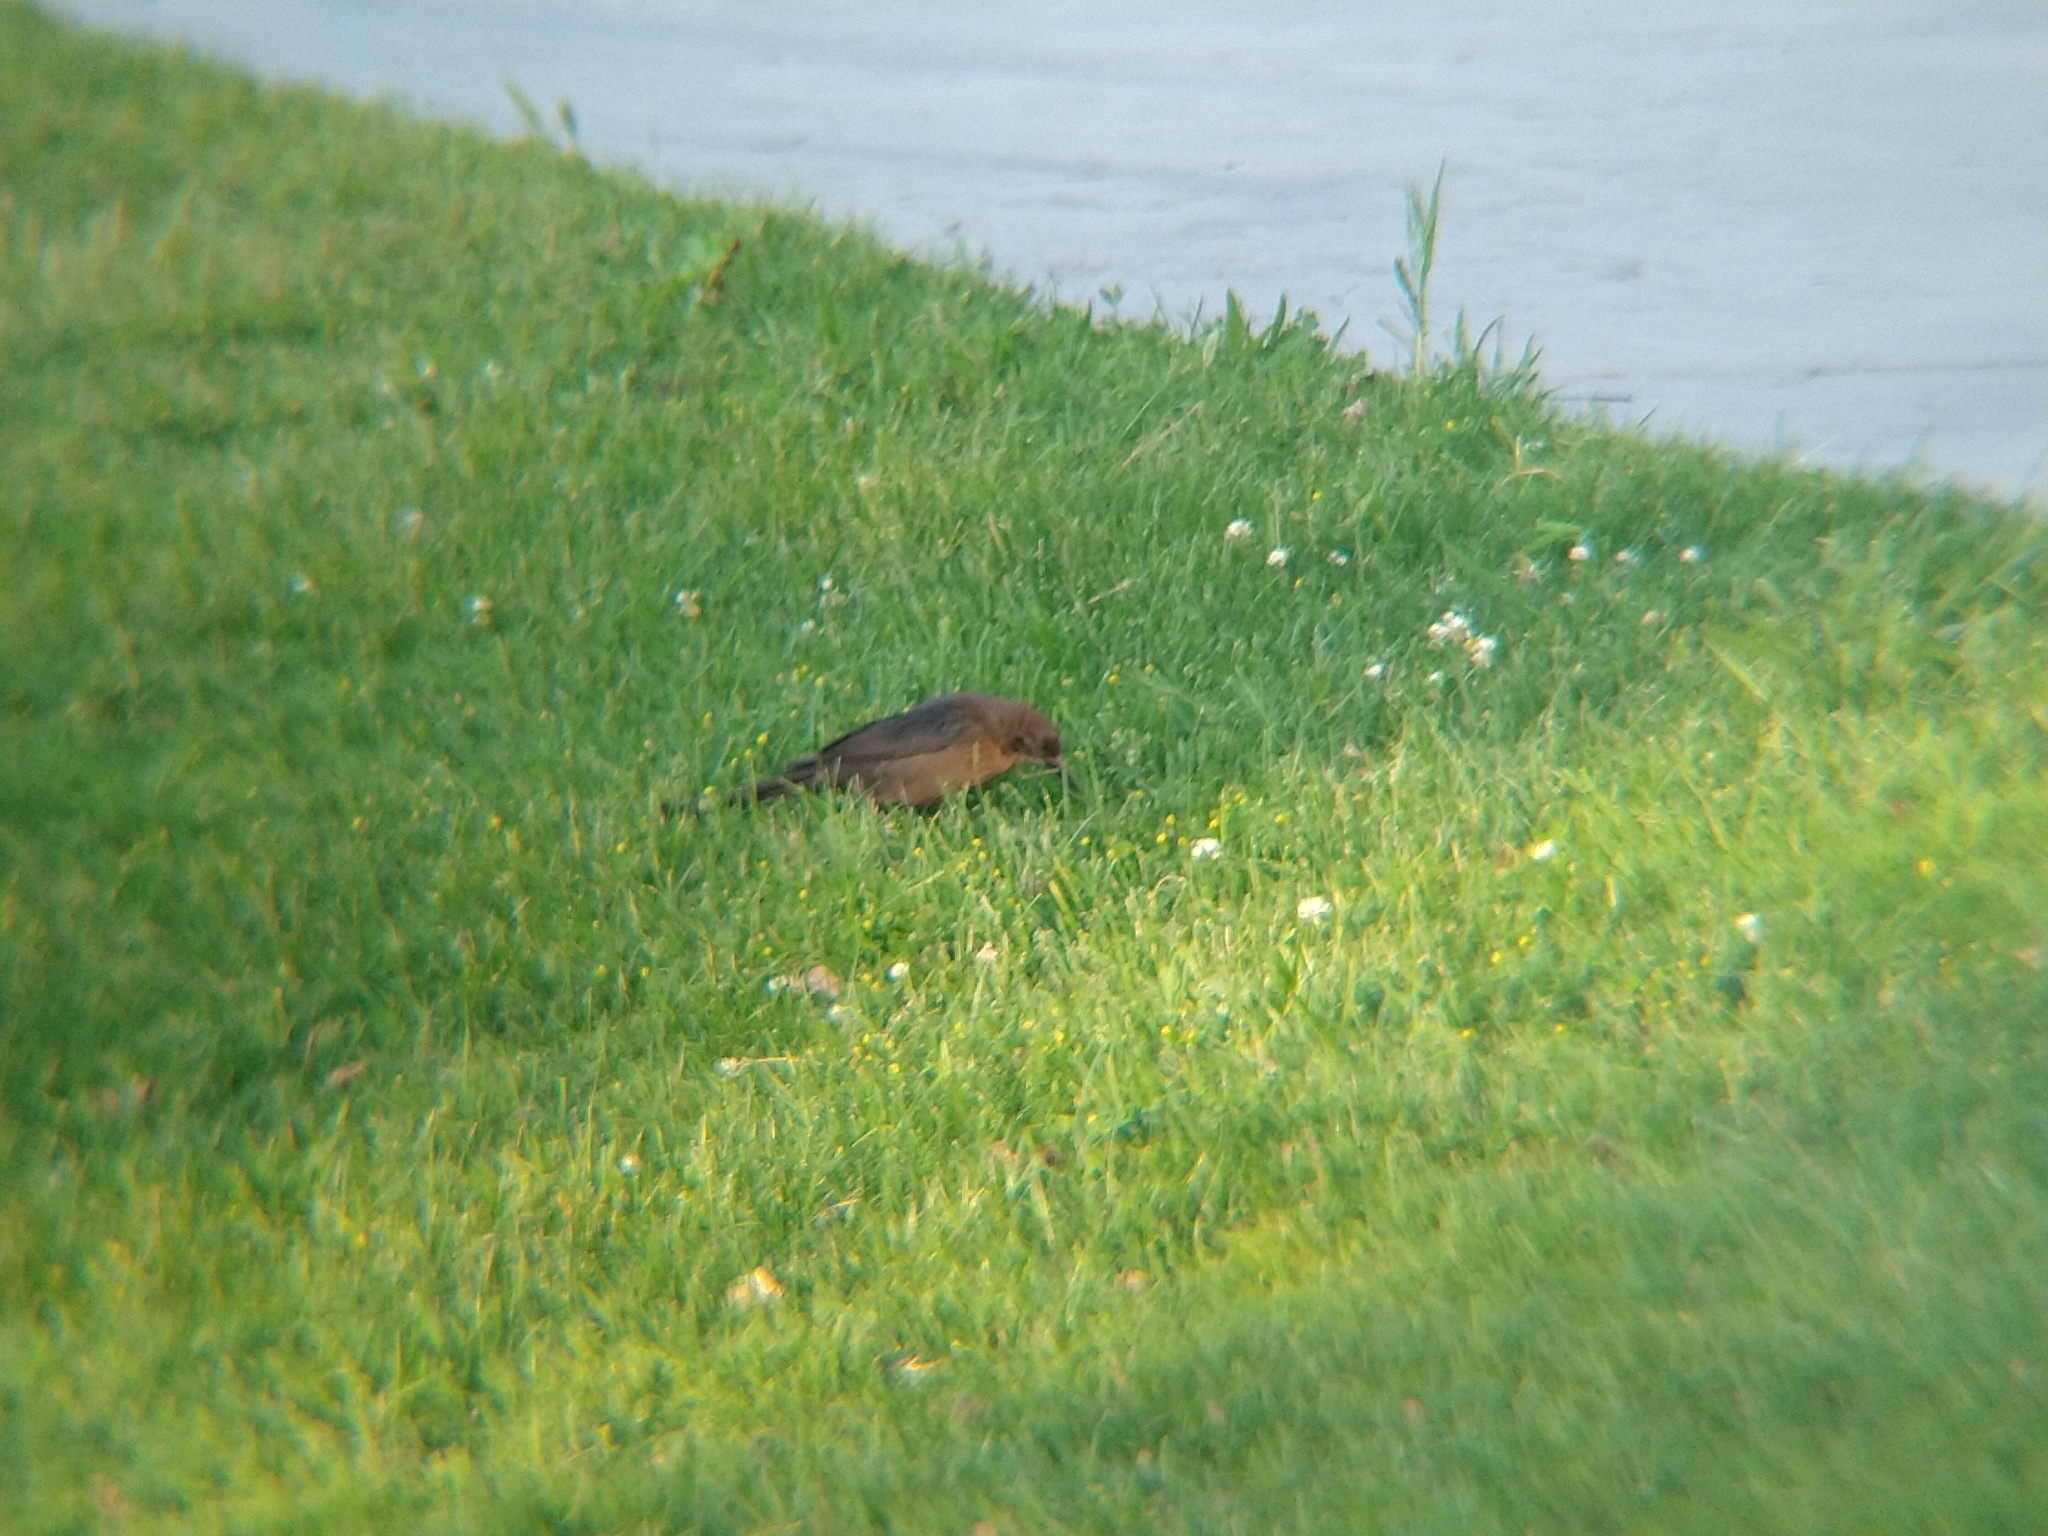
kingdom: Animalia
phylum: Chordata
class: Aves
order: Passeriformes
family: Icteridae
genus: Quiscalus
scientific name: Quiscalus mexicanus
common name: Great-tailed grackle
